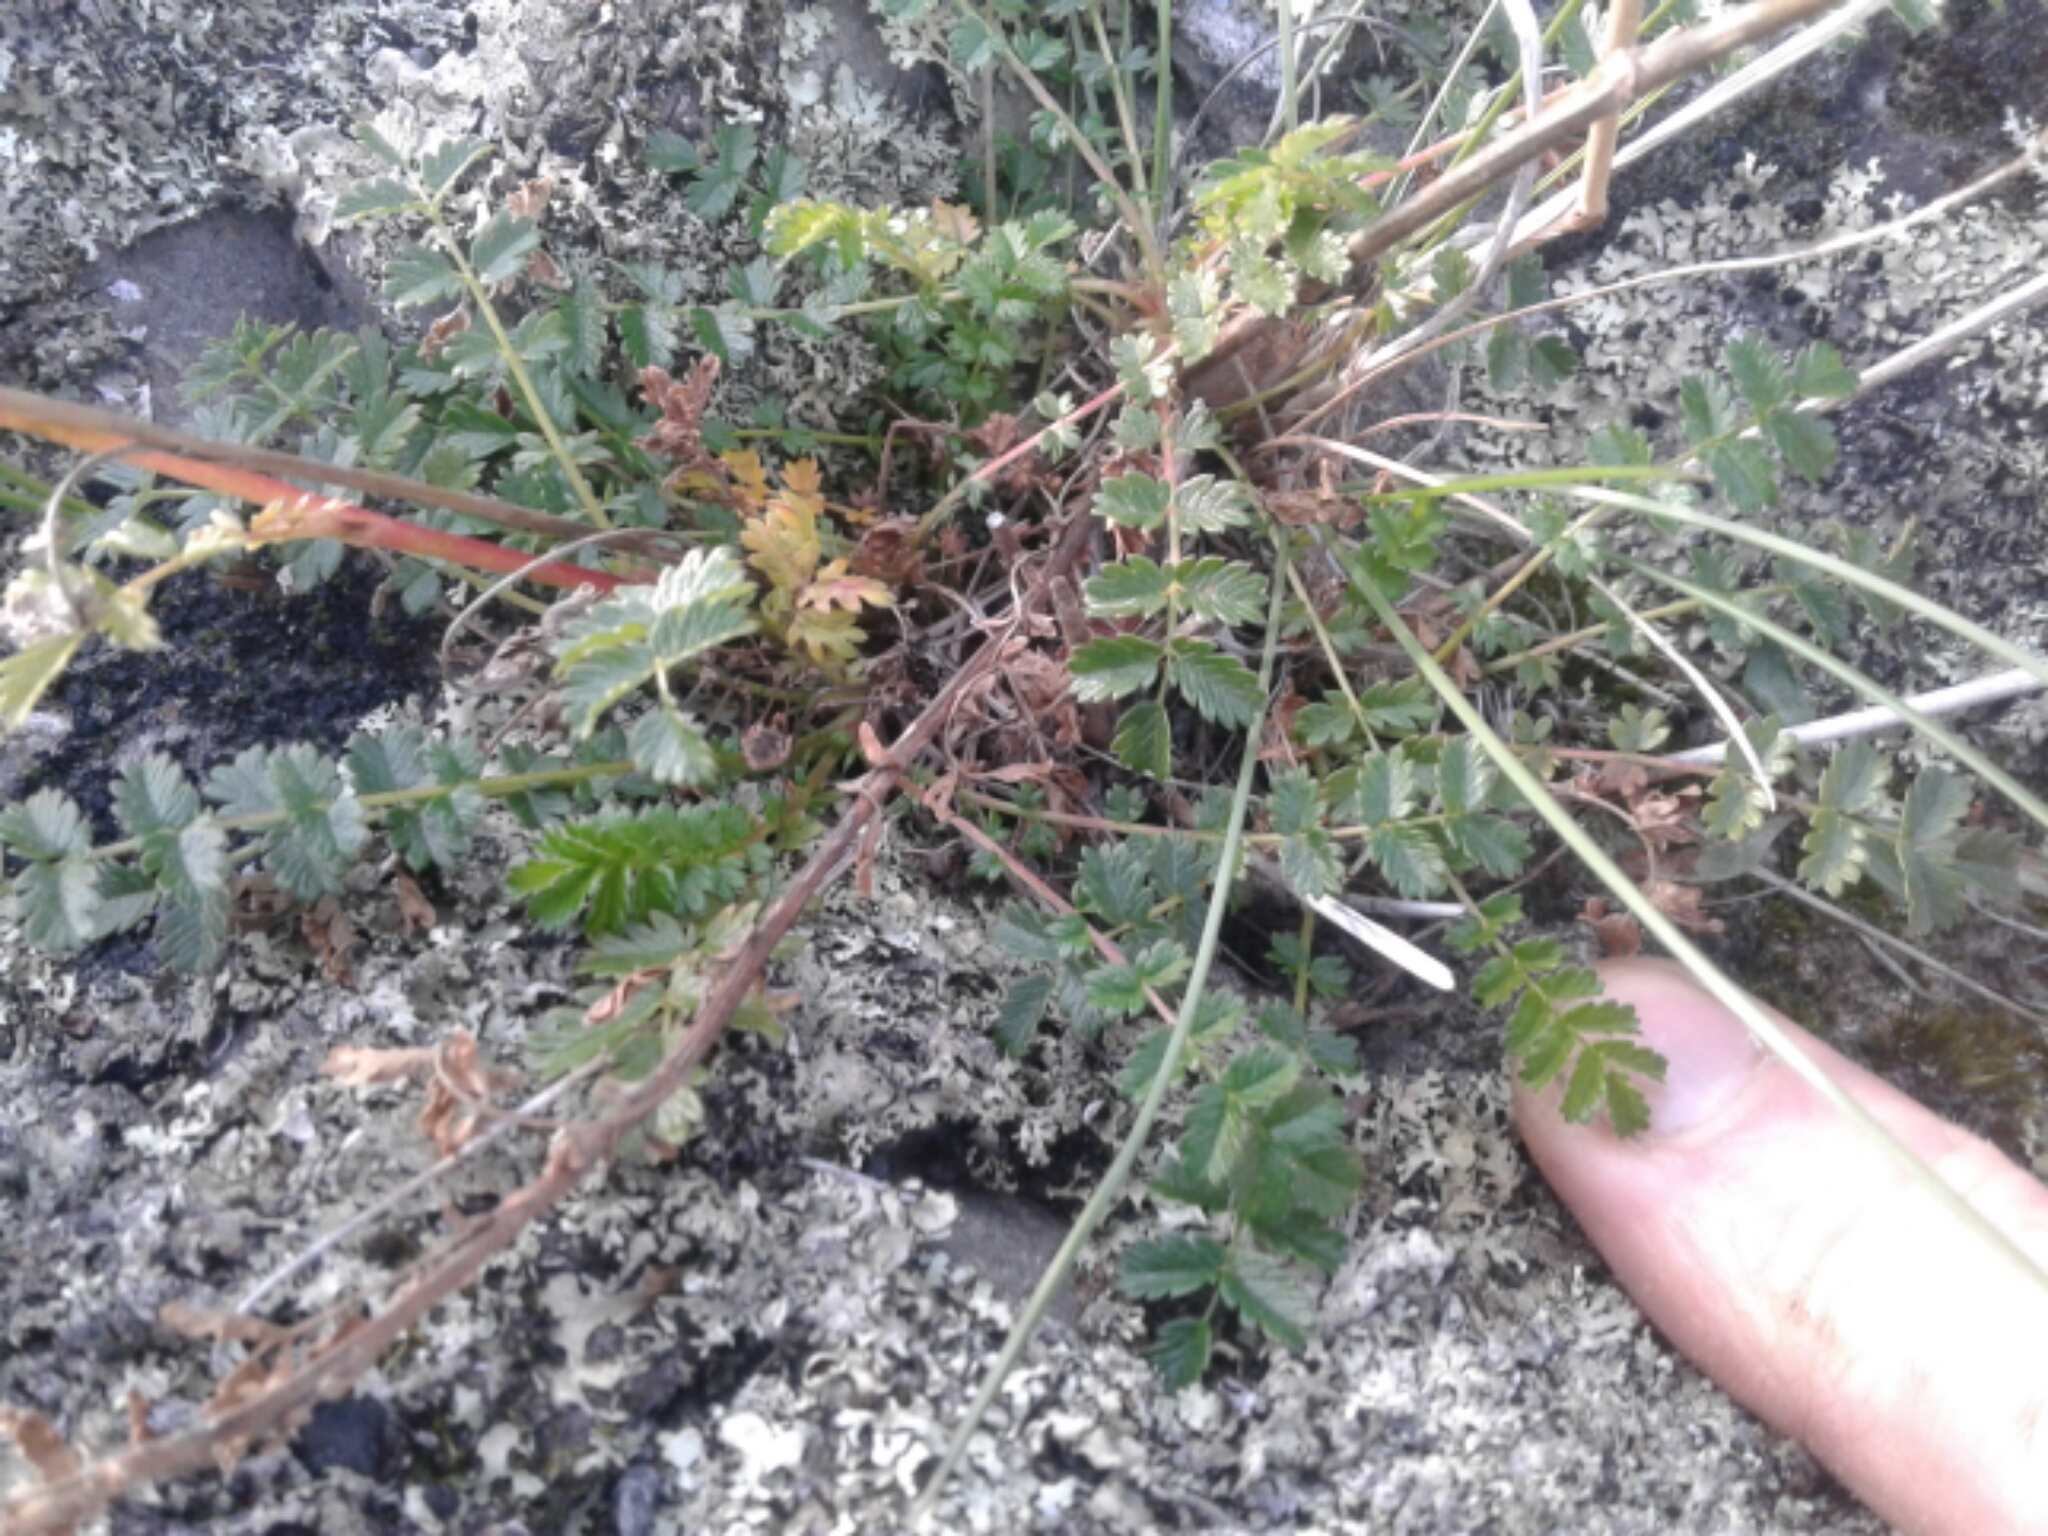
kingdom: Plantae
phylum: Tracheophyta
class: Magnoliopsida
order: Rosales
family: Rosaceae
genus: Acaena
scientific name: Acaena agnipila
